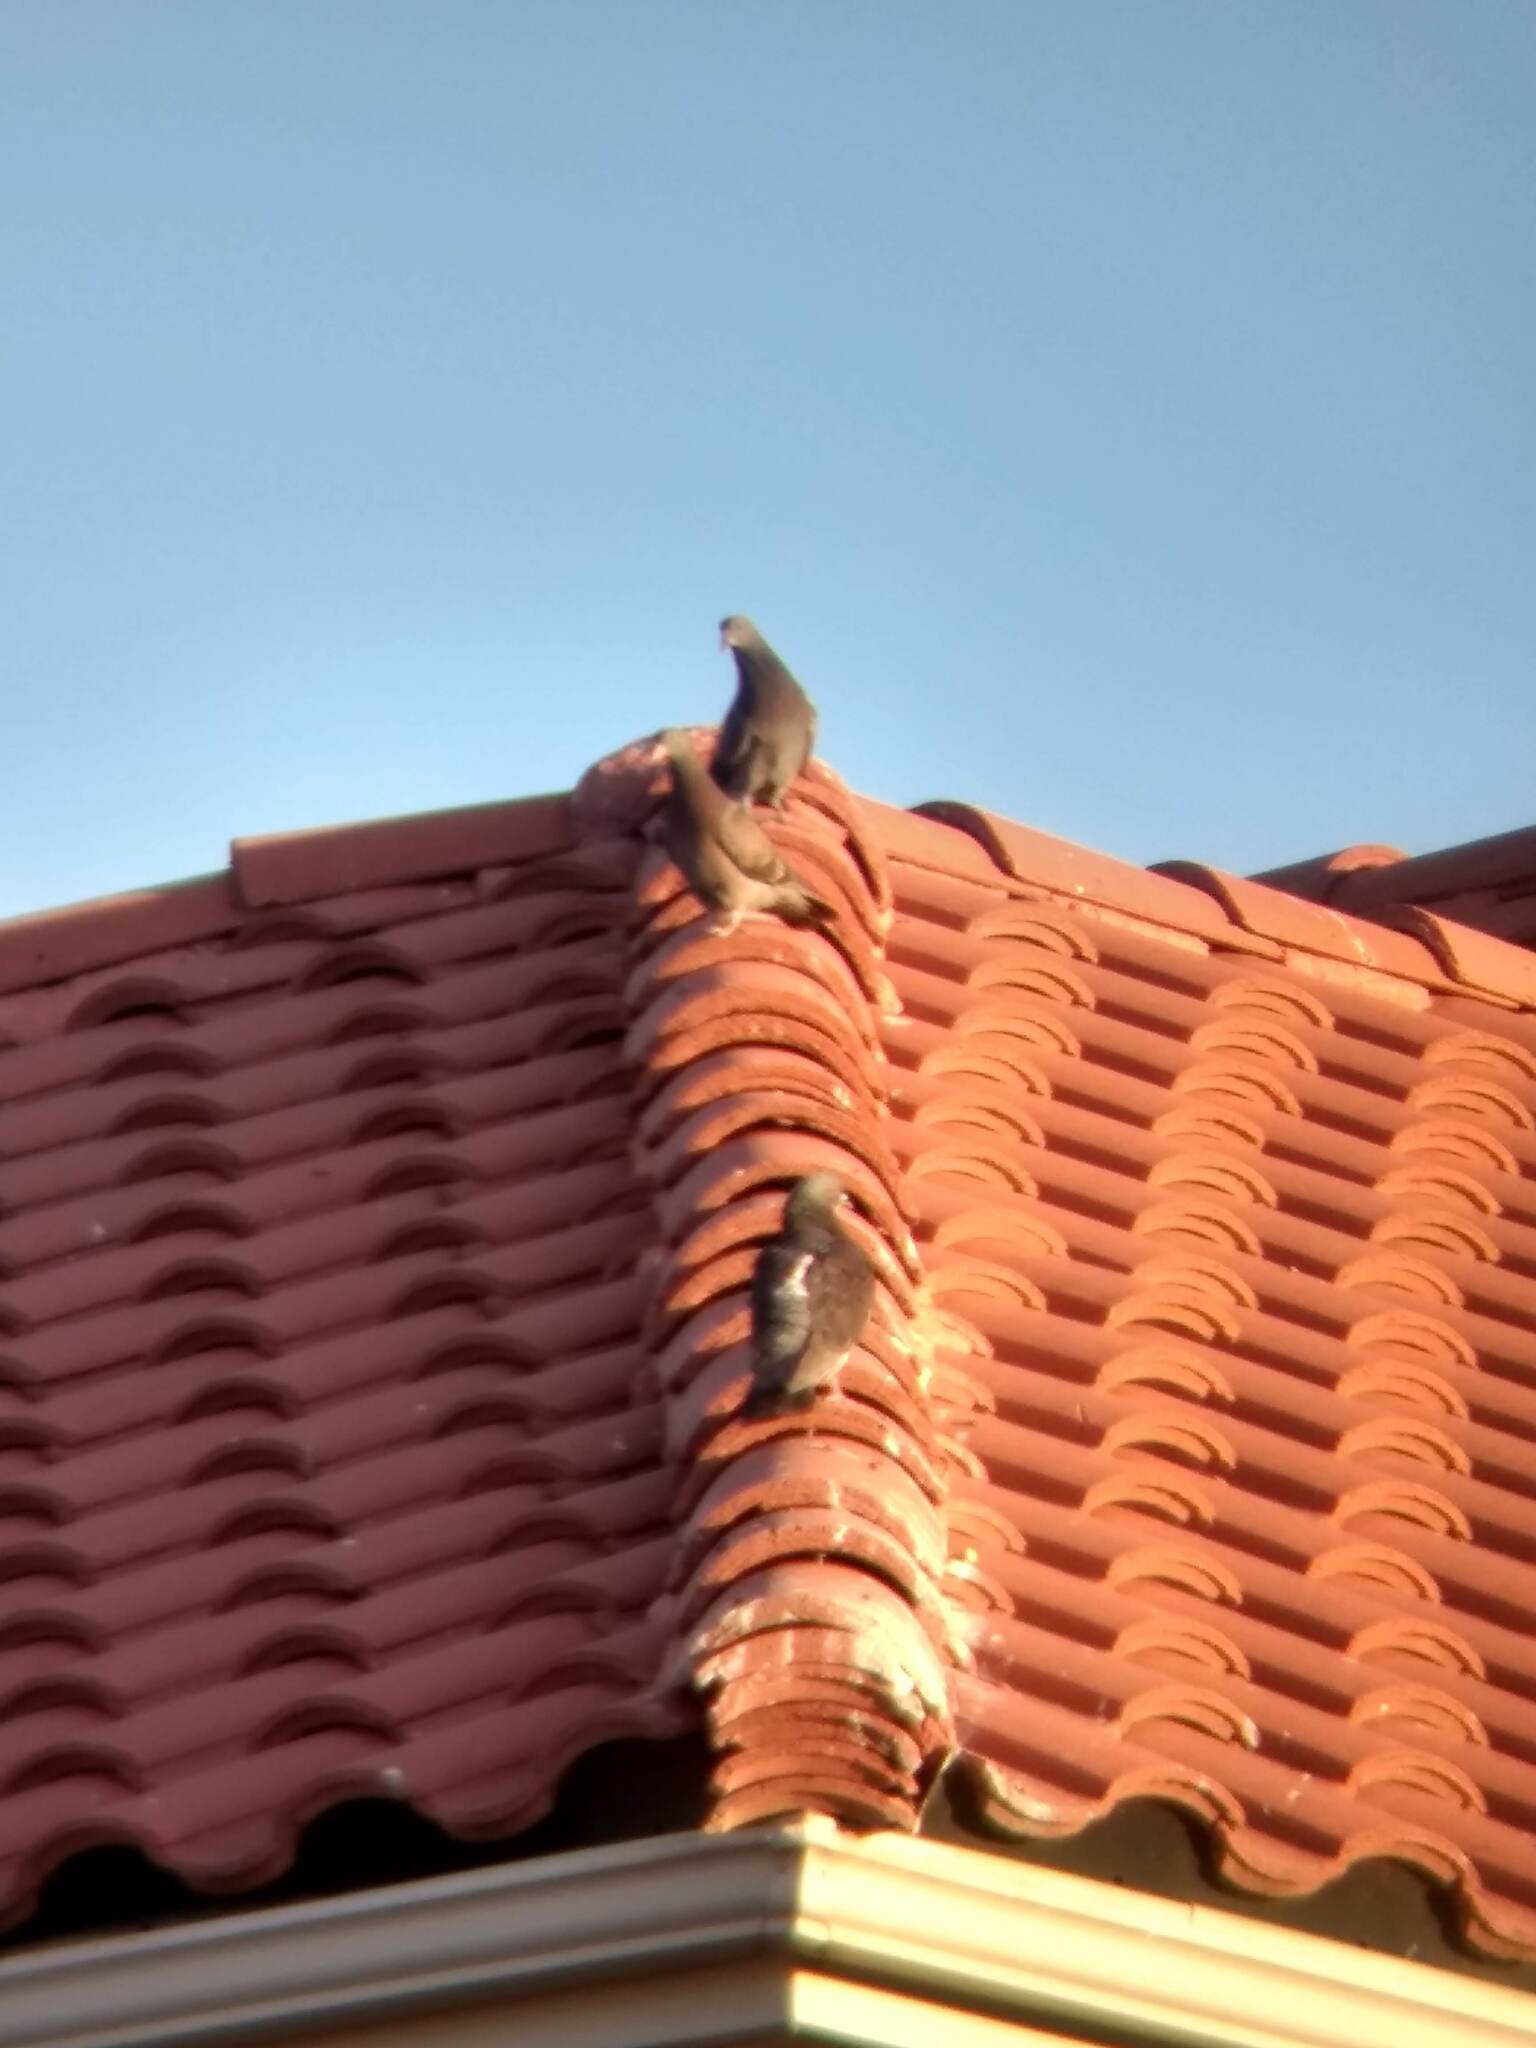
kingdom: Animalia
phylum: Chordata
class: Aves
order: Columbiformes
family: Columbidae
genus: Columba
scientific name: Columba livia
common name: Rock pigeon
